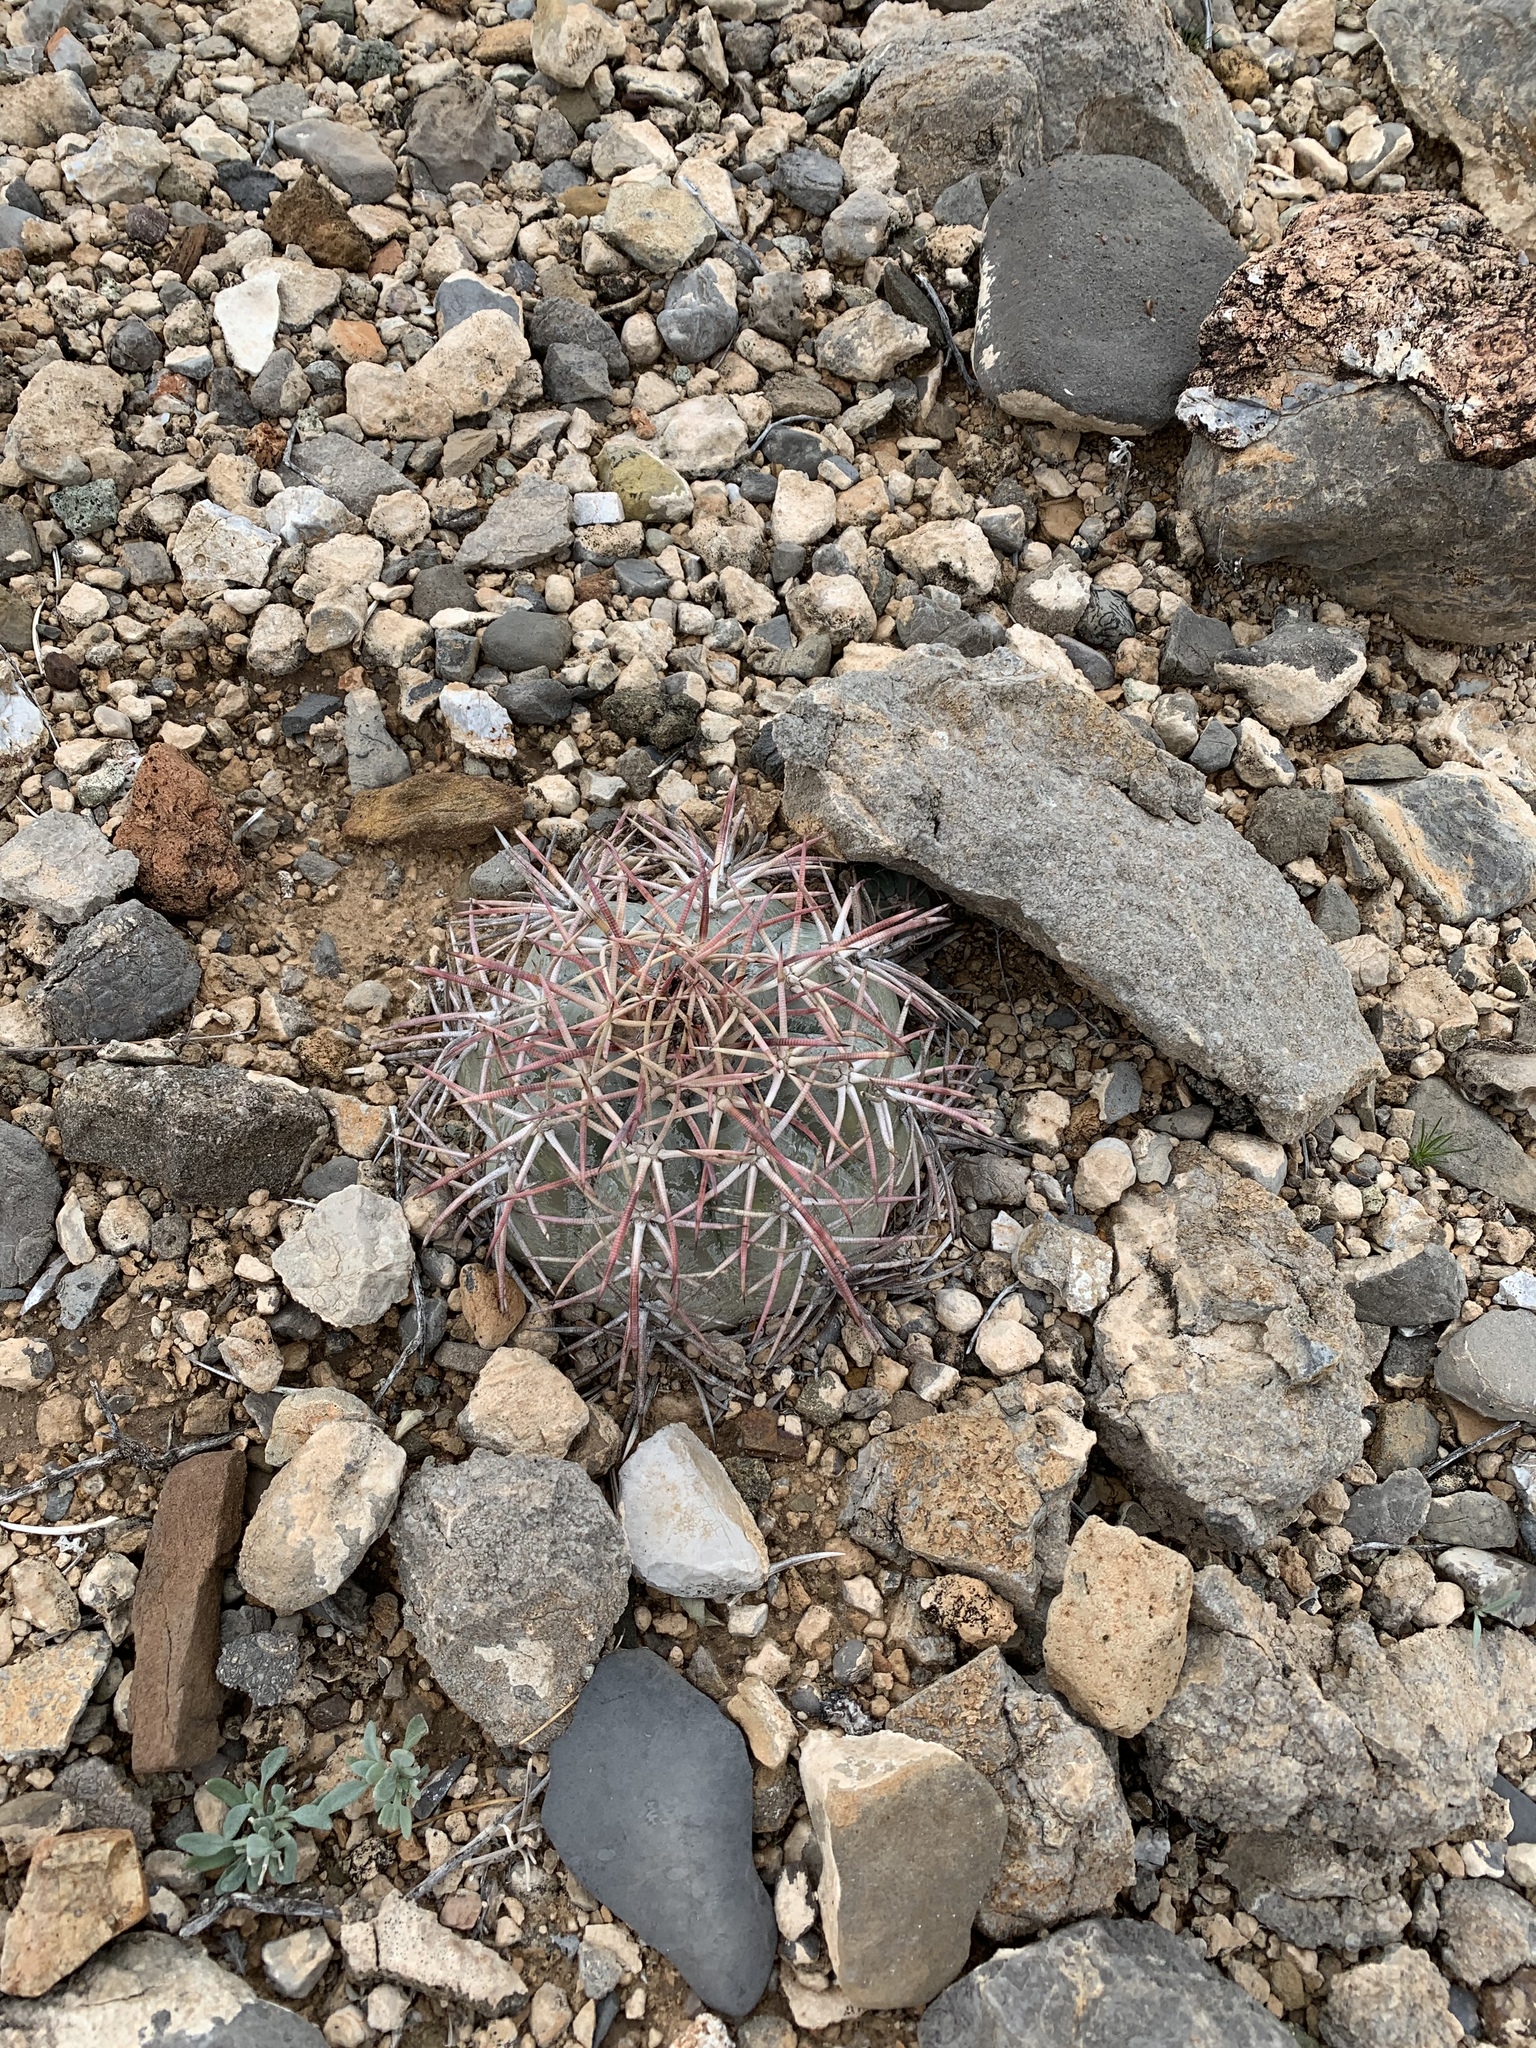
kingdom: Plantae
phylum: Tracheophyta
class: Magnoliopsida
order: Caryophyllales
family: Cactaceae
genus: Echinocactus
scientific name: Echinocactus horizonthalonius
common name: Devilshead
